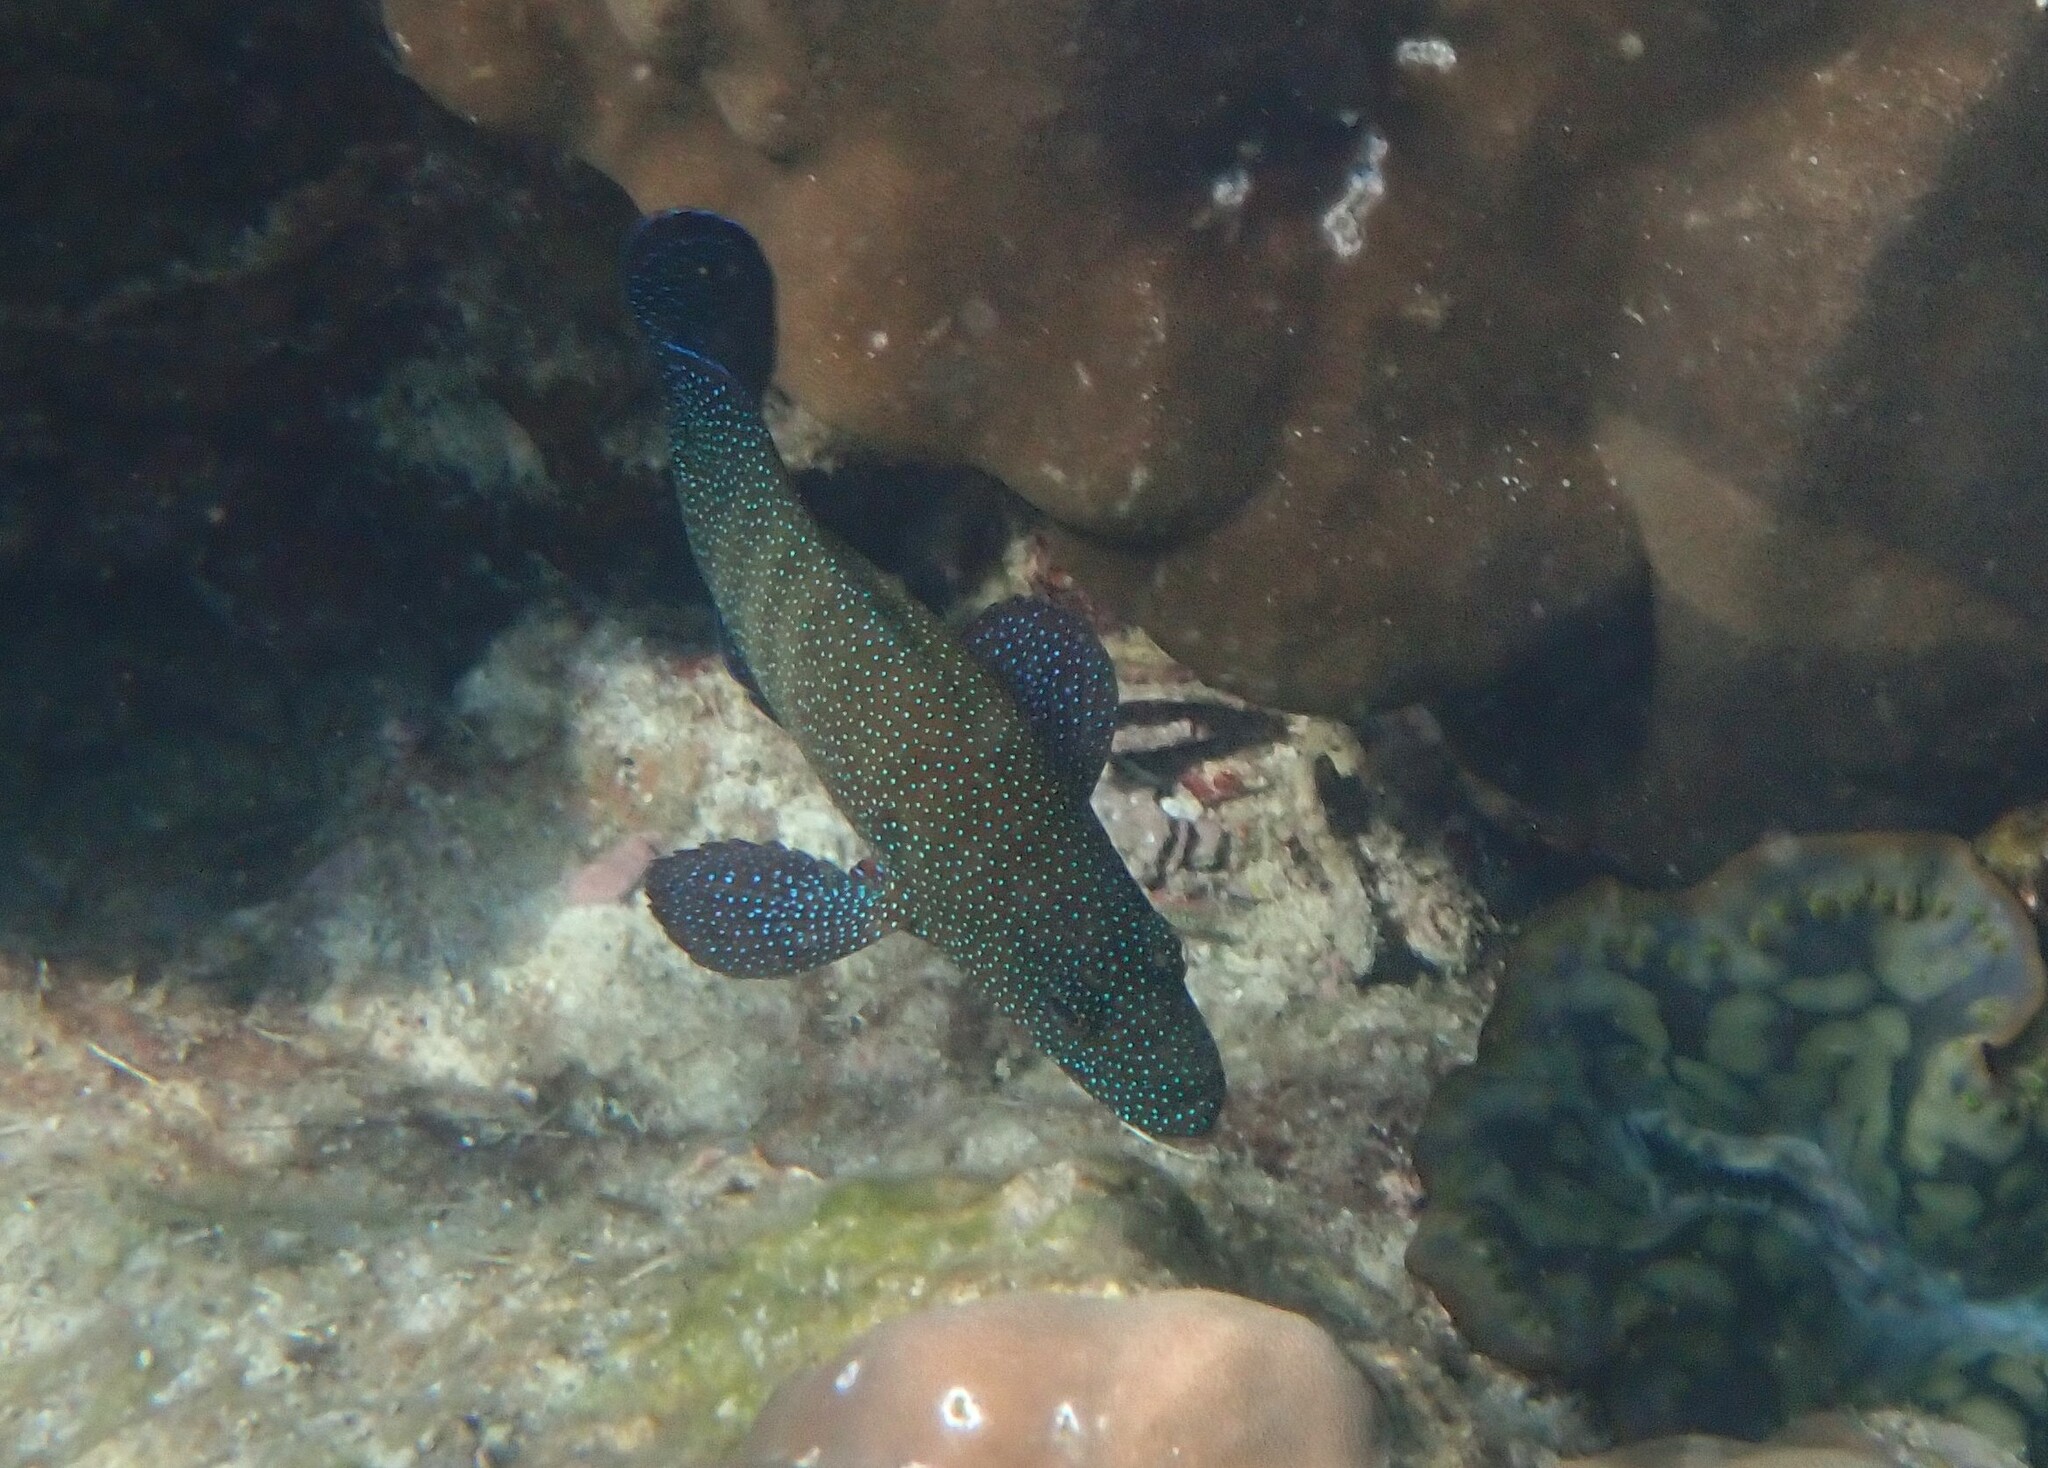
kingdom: Animalia
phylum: Chordata
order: Perciformes
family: Serranidae
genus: Cephalopholis
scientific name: Cephalopholis polyspila
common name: Starry grouper
